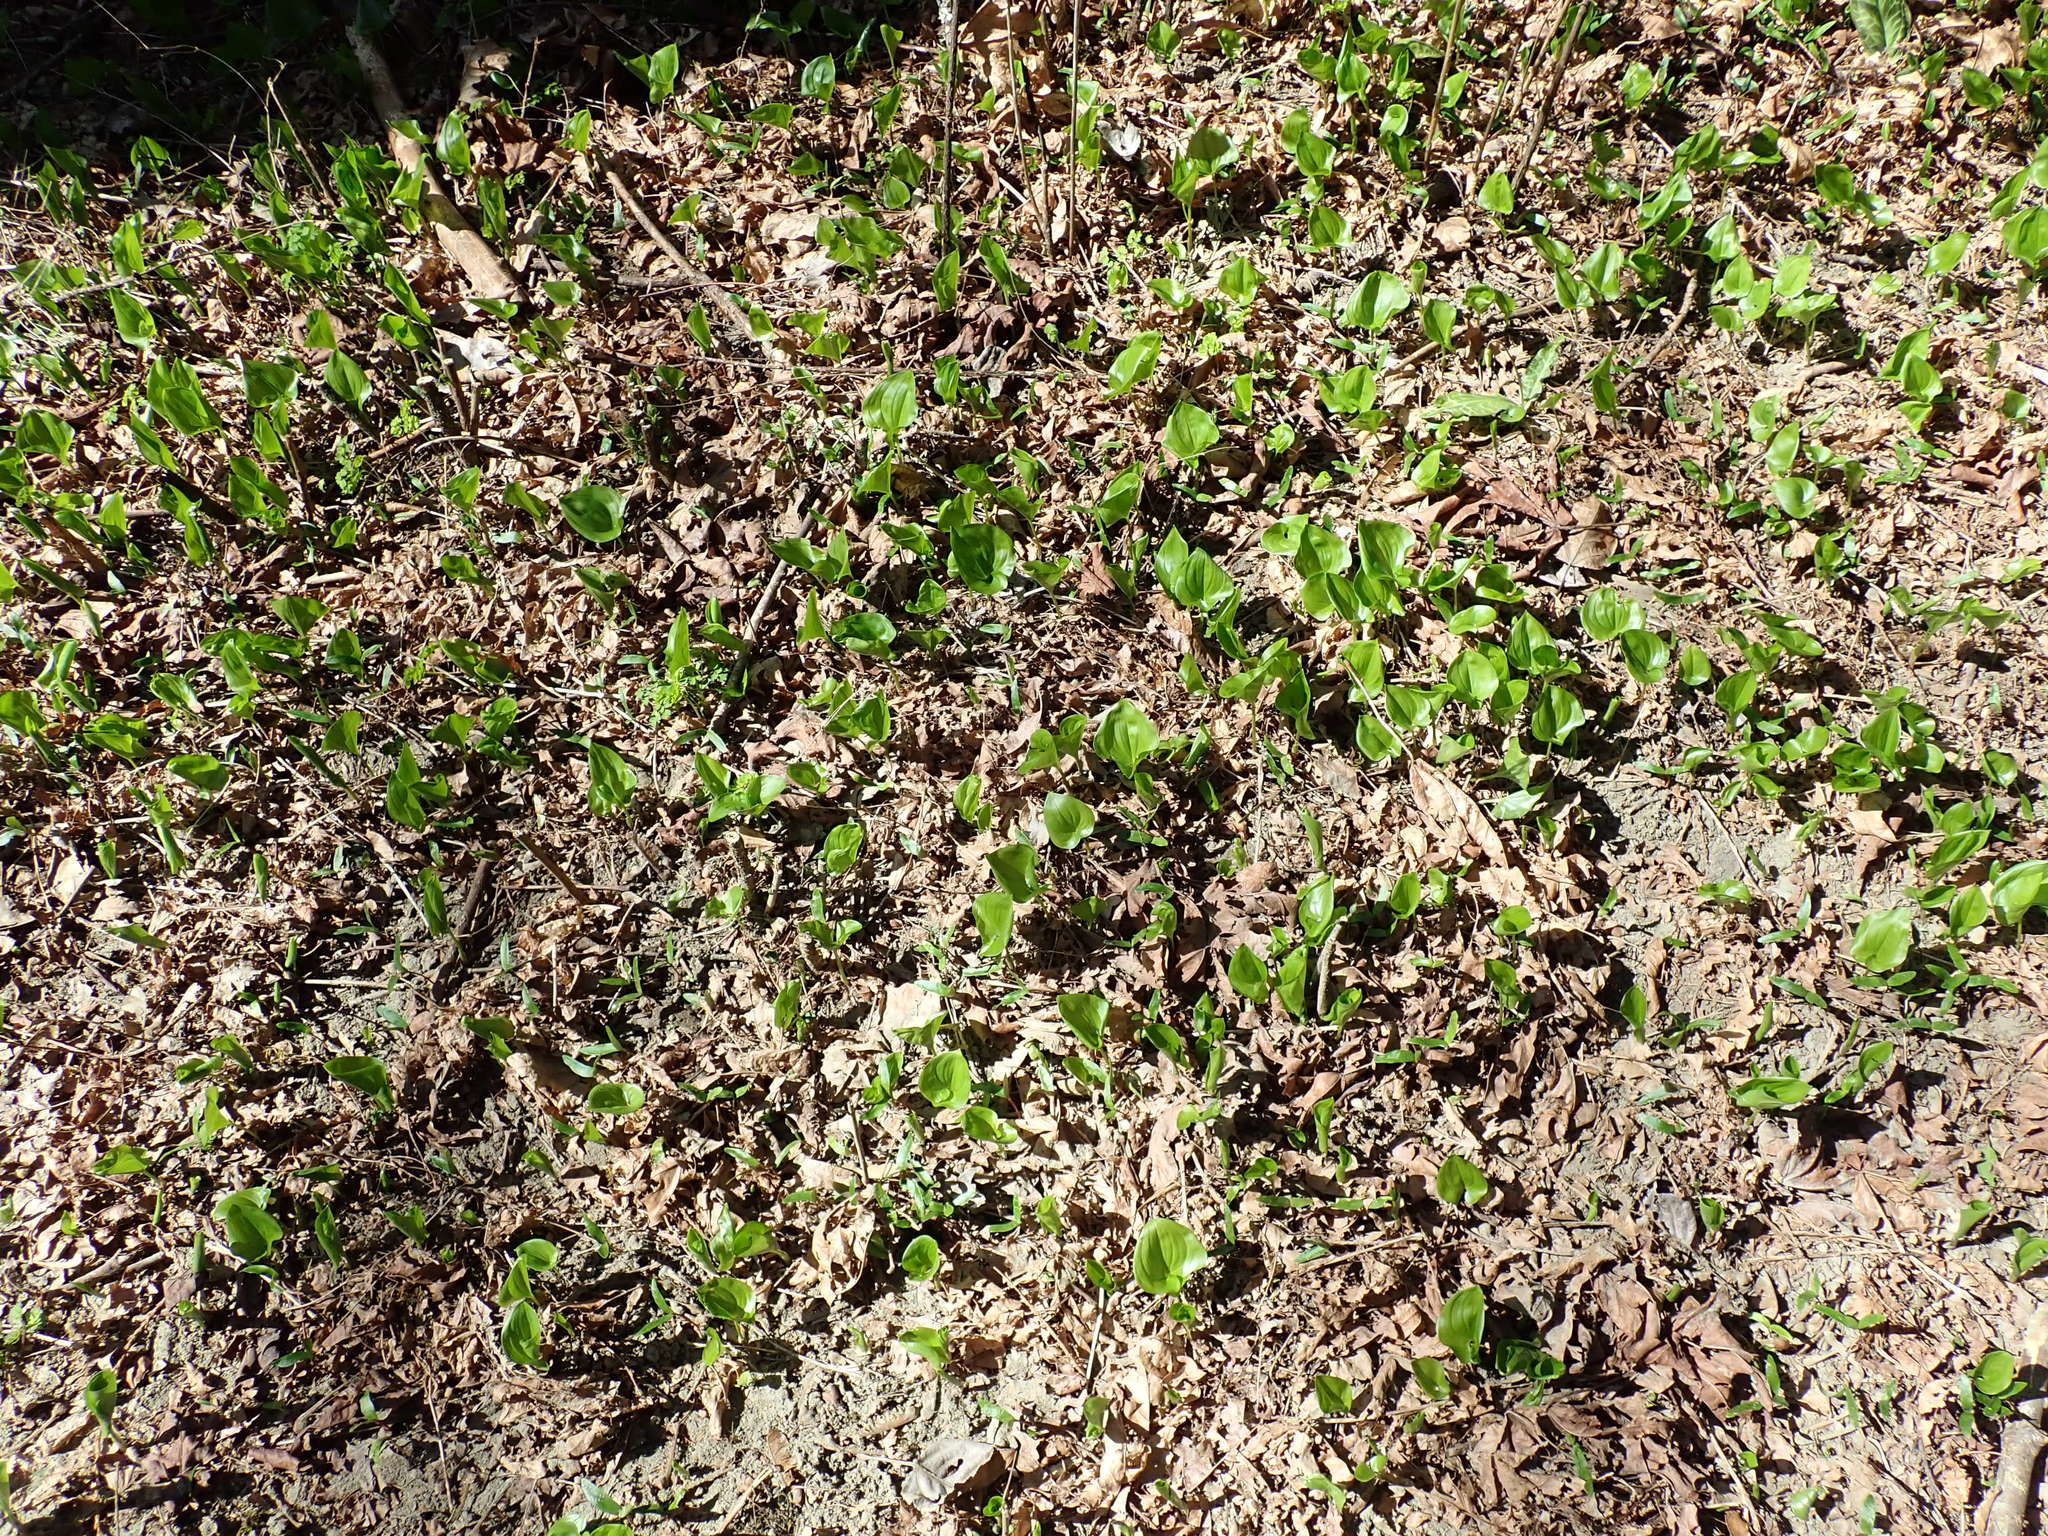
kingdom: Plantae
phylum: Tracheophyta
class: Liliopsida
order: Asparagales
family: Asparagaceae
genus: Maianthemum
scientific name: Maianthemum dilatatum
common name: False lily-of-the-valley
